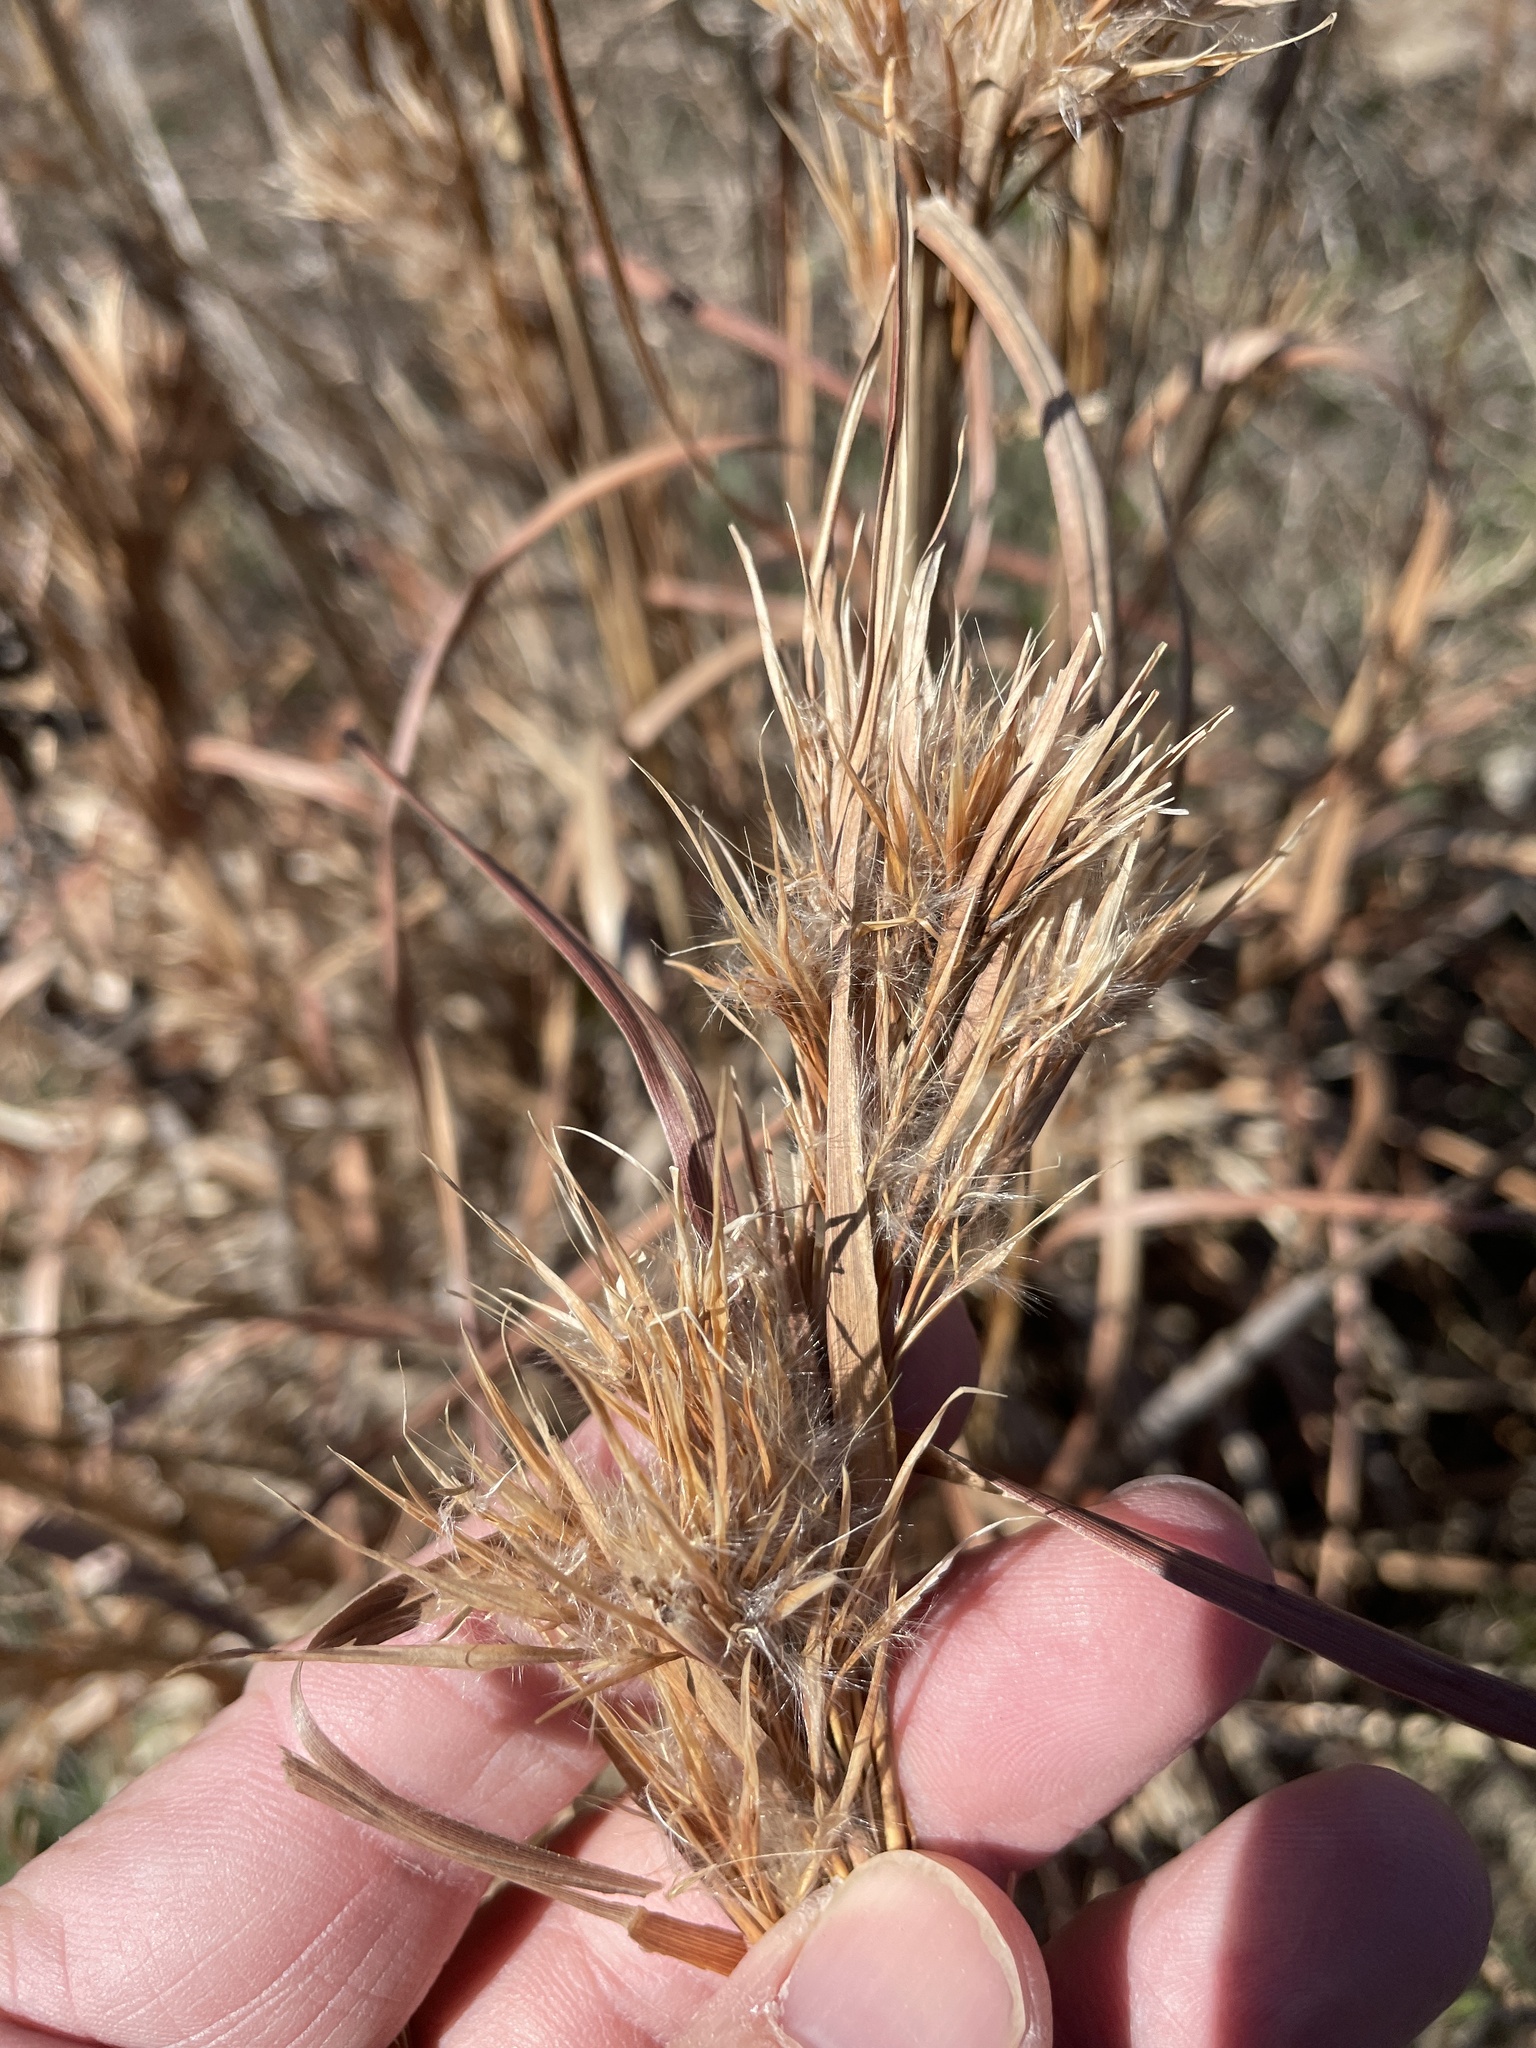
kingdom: Plantae
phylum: Tracheophyta
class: Liliopsida
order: Poales
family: Poaceae
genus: Andropogon
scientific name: Andropogon tenuispatheus
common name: Bushy bluestem
